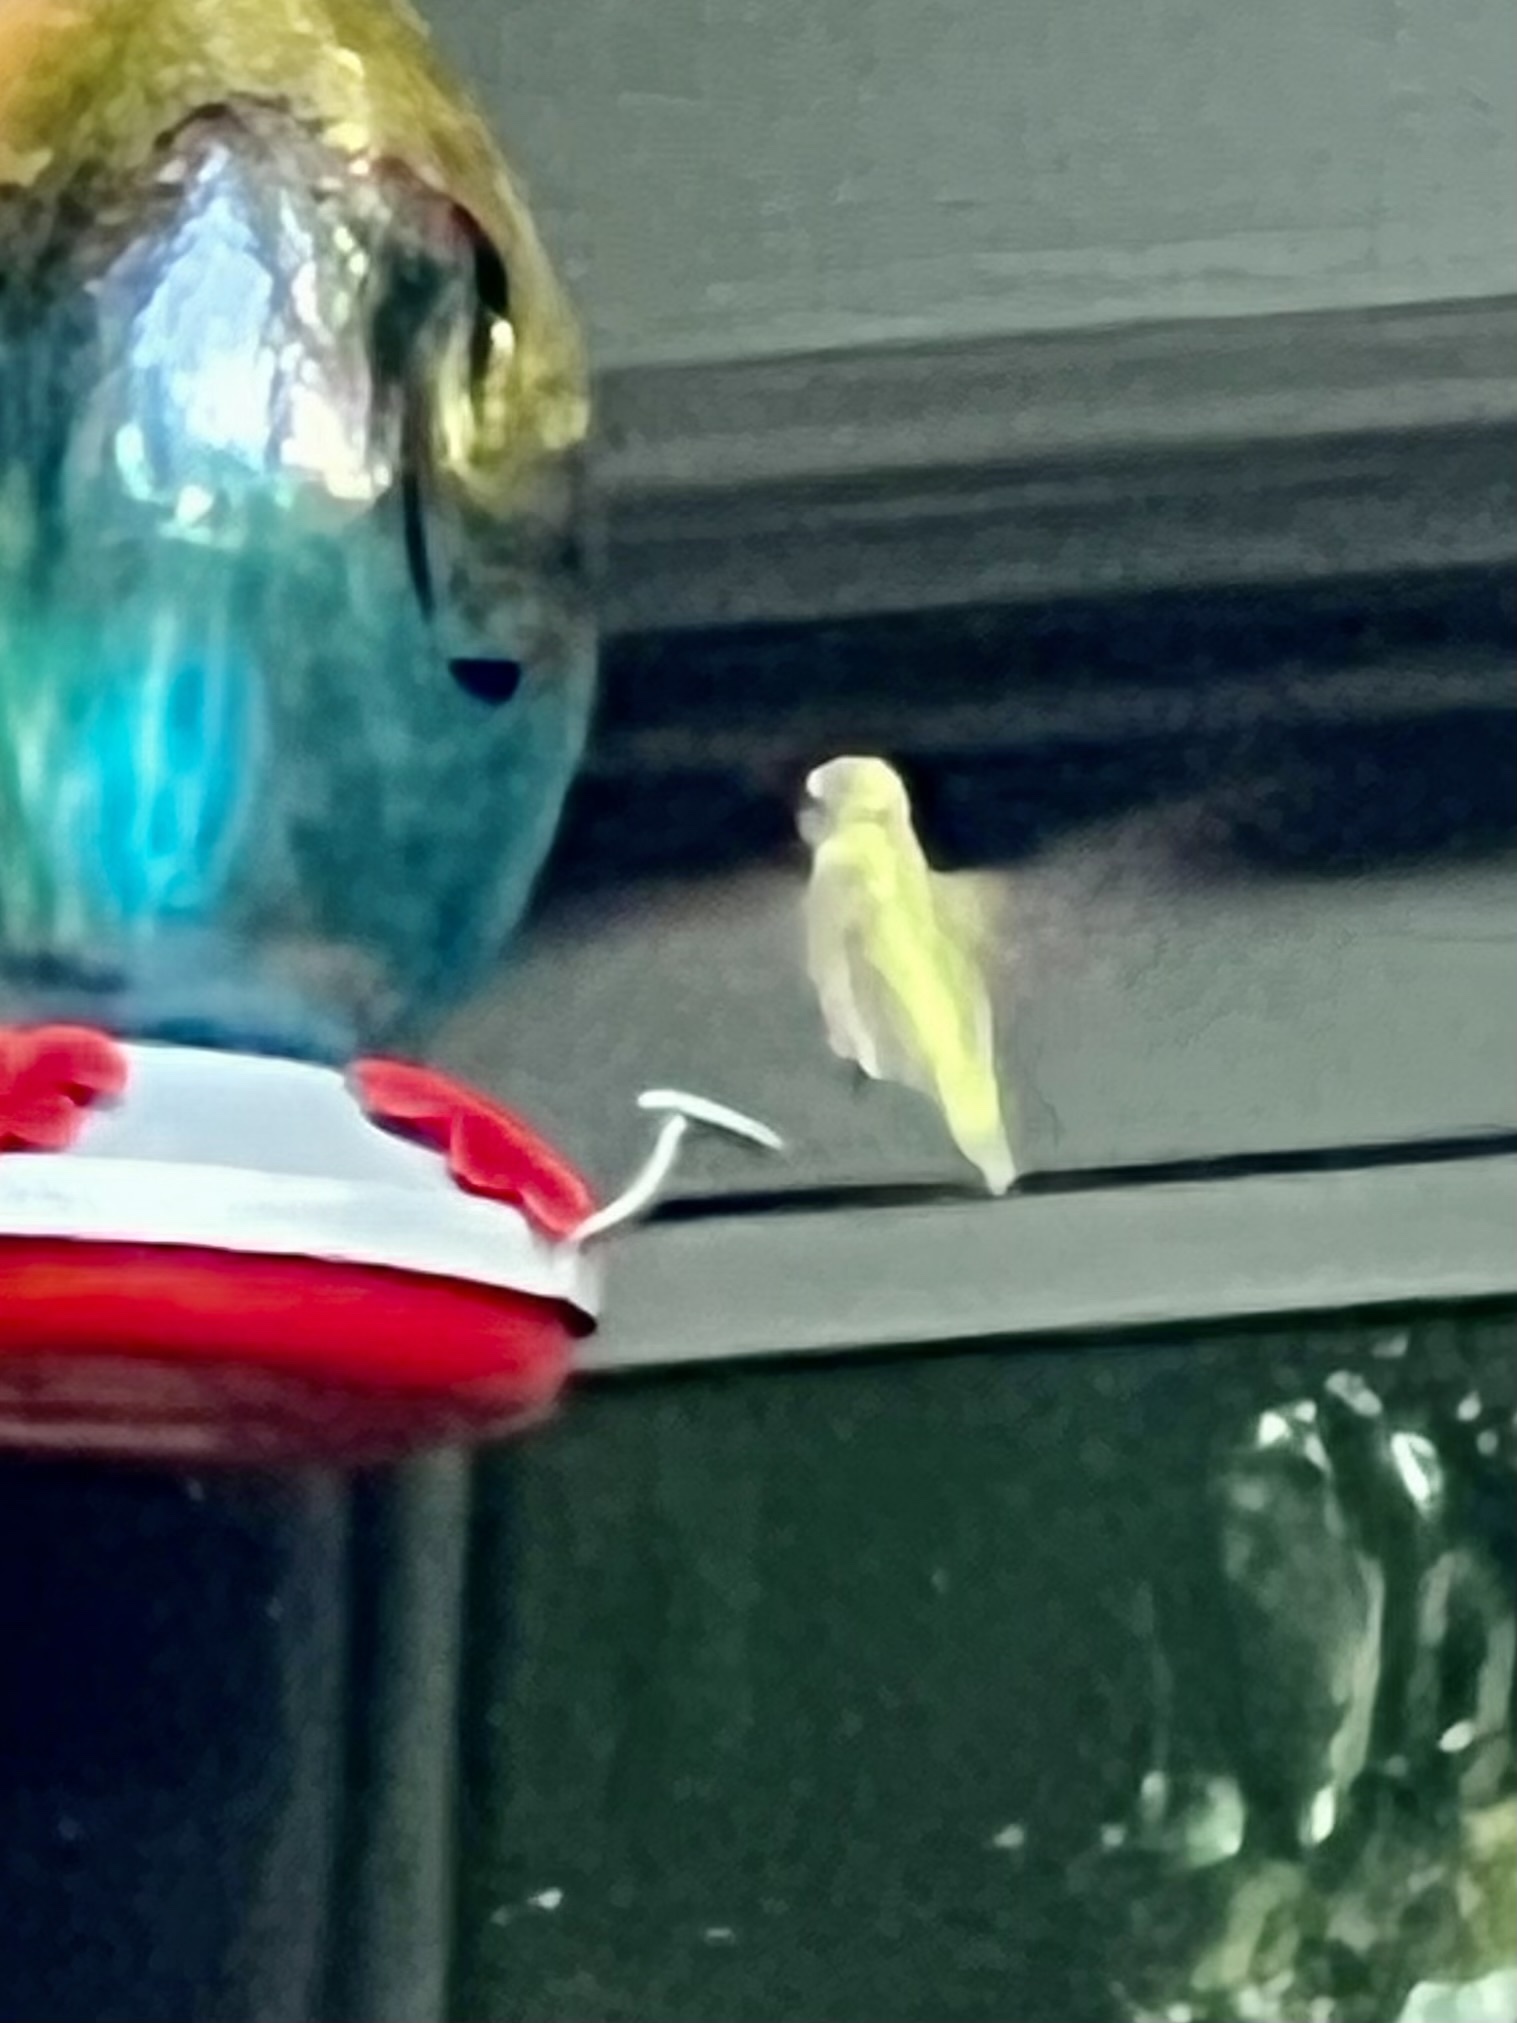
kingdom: Animalia
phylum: Chordata
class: Aves
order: Apodiformes
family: Trochilidae
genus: Archilochus
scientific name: Archilochus colubris
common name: Ruby-throated hummingbird
